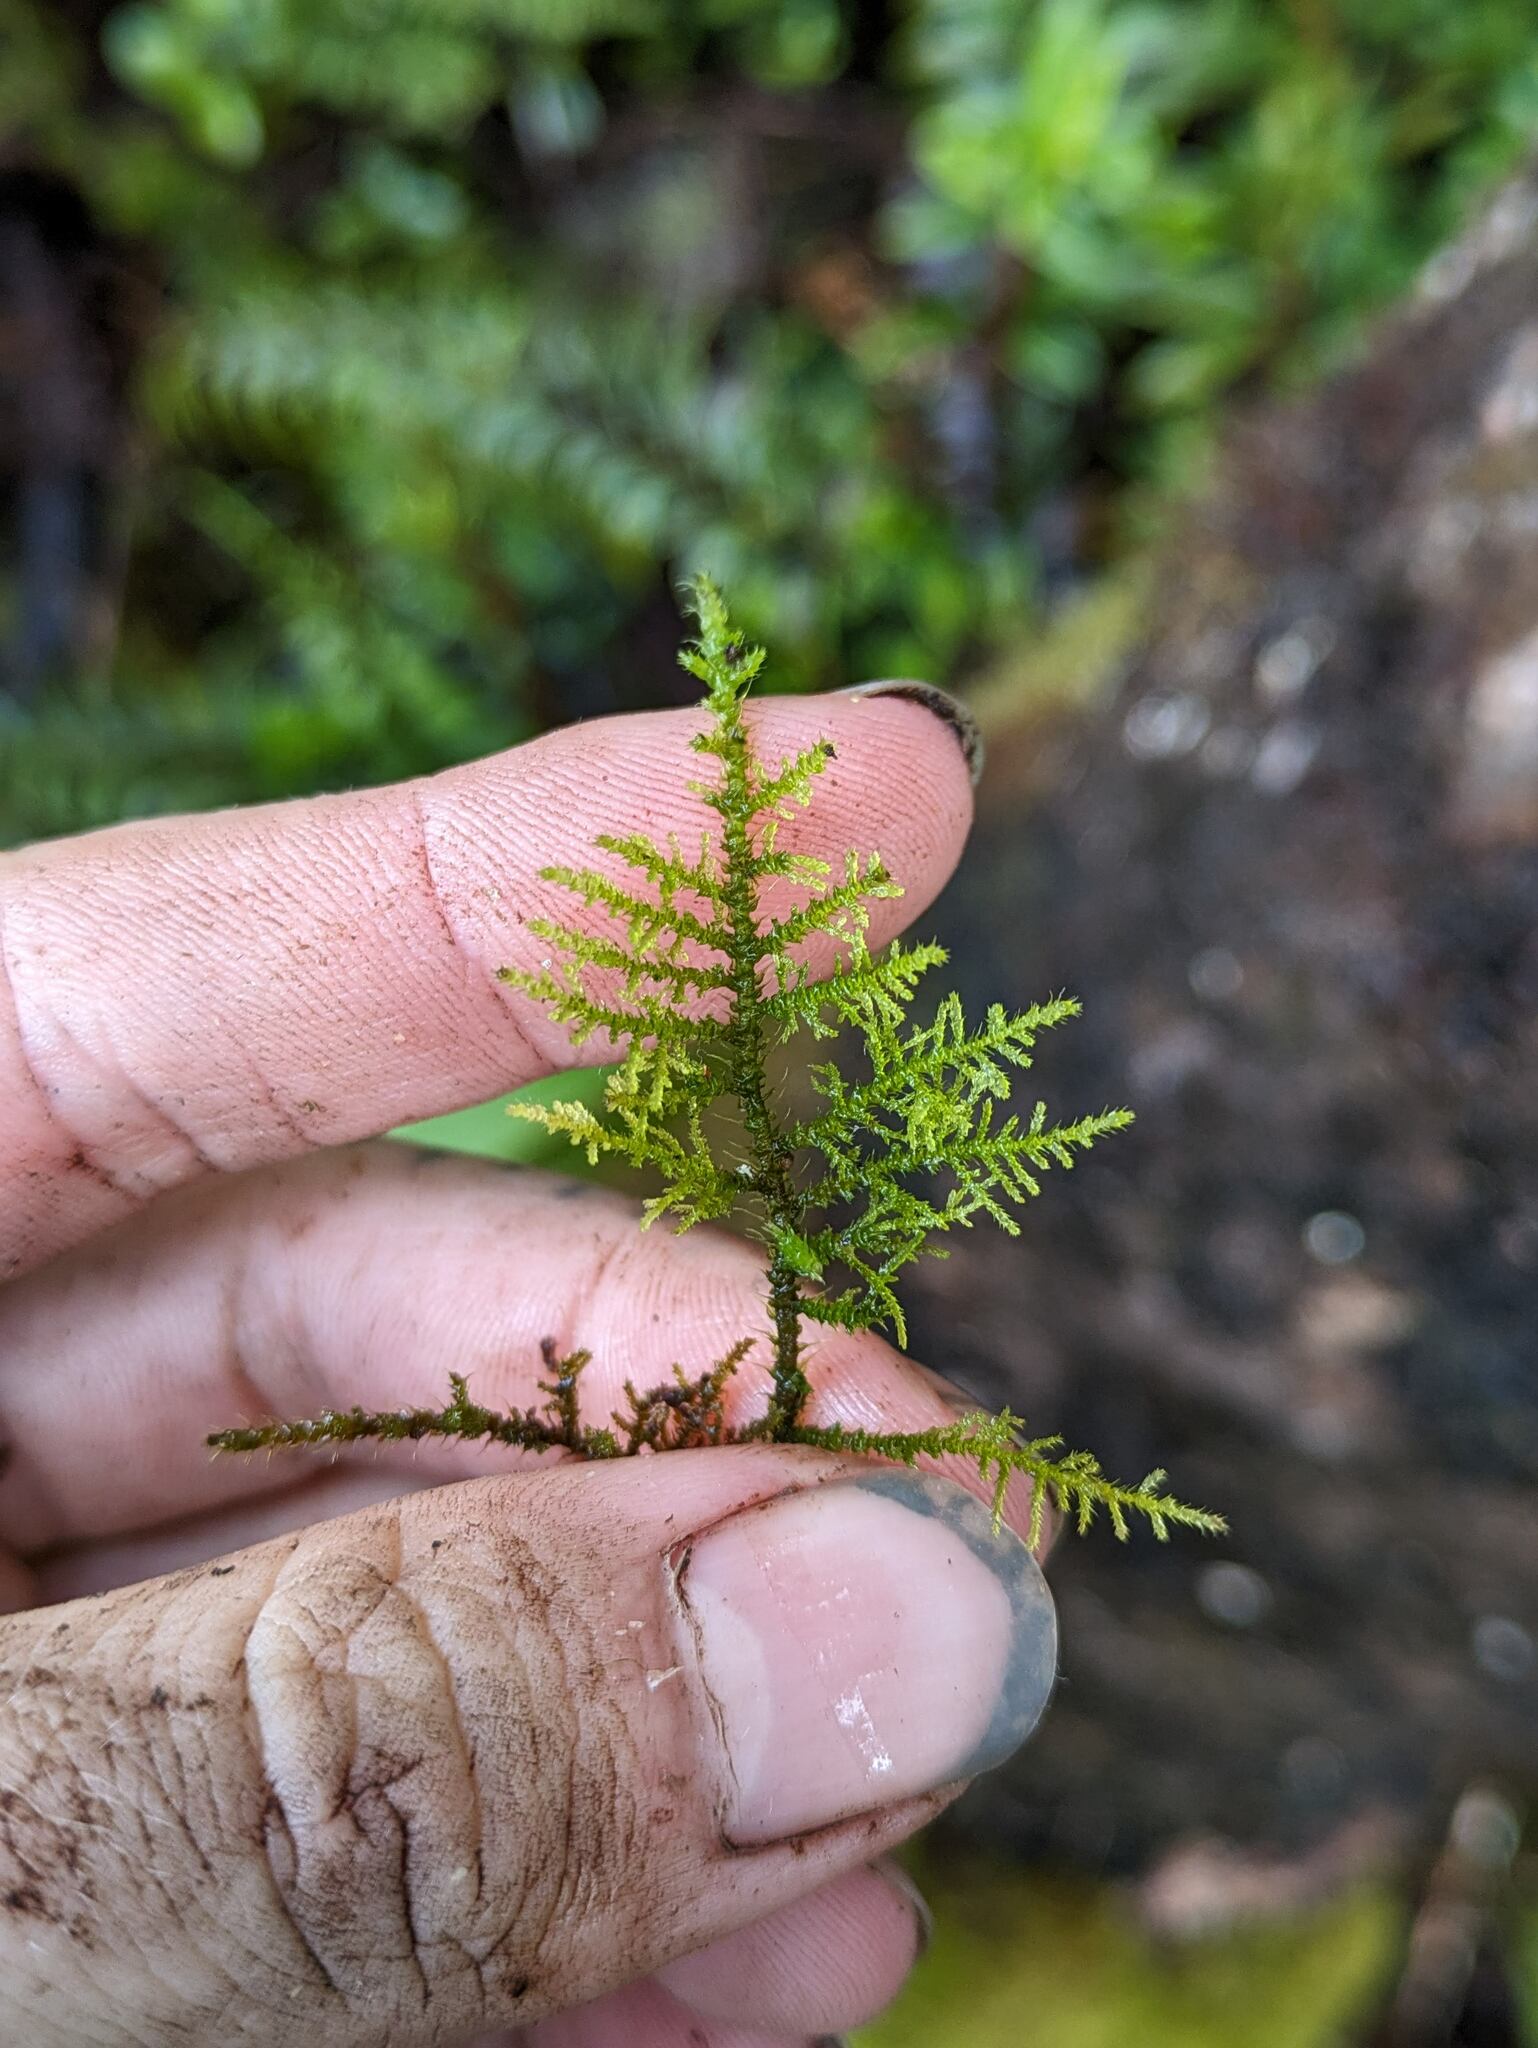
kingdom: Plantae
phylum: Bryophyta
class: Bryopsida
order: Hypnales
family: Thuidiaceae
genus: Thuidium
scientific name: Thuidium cymbifolium
